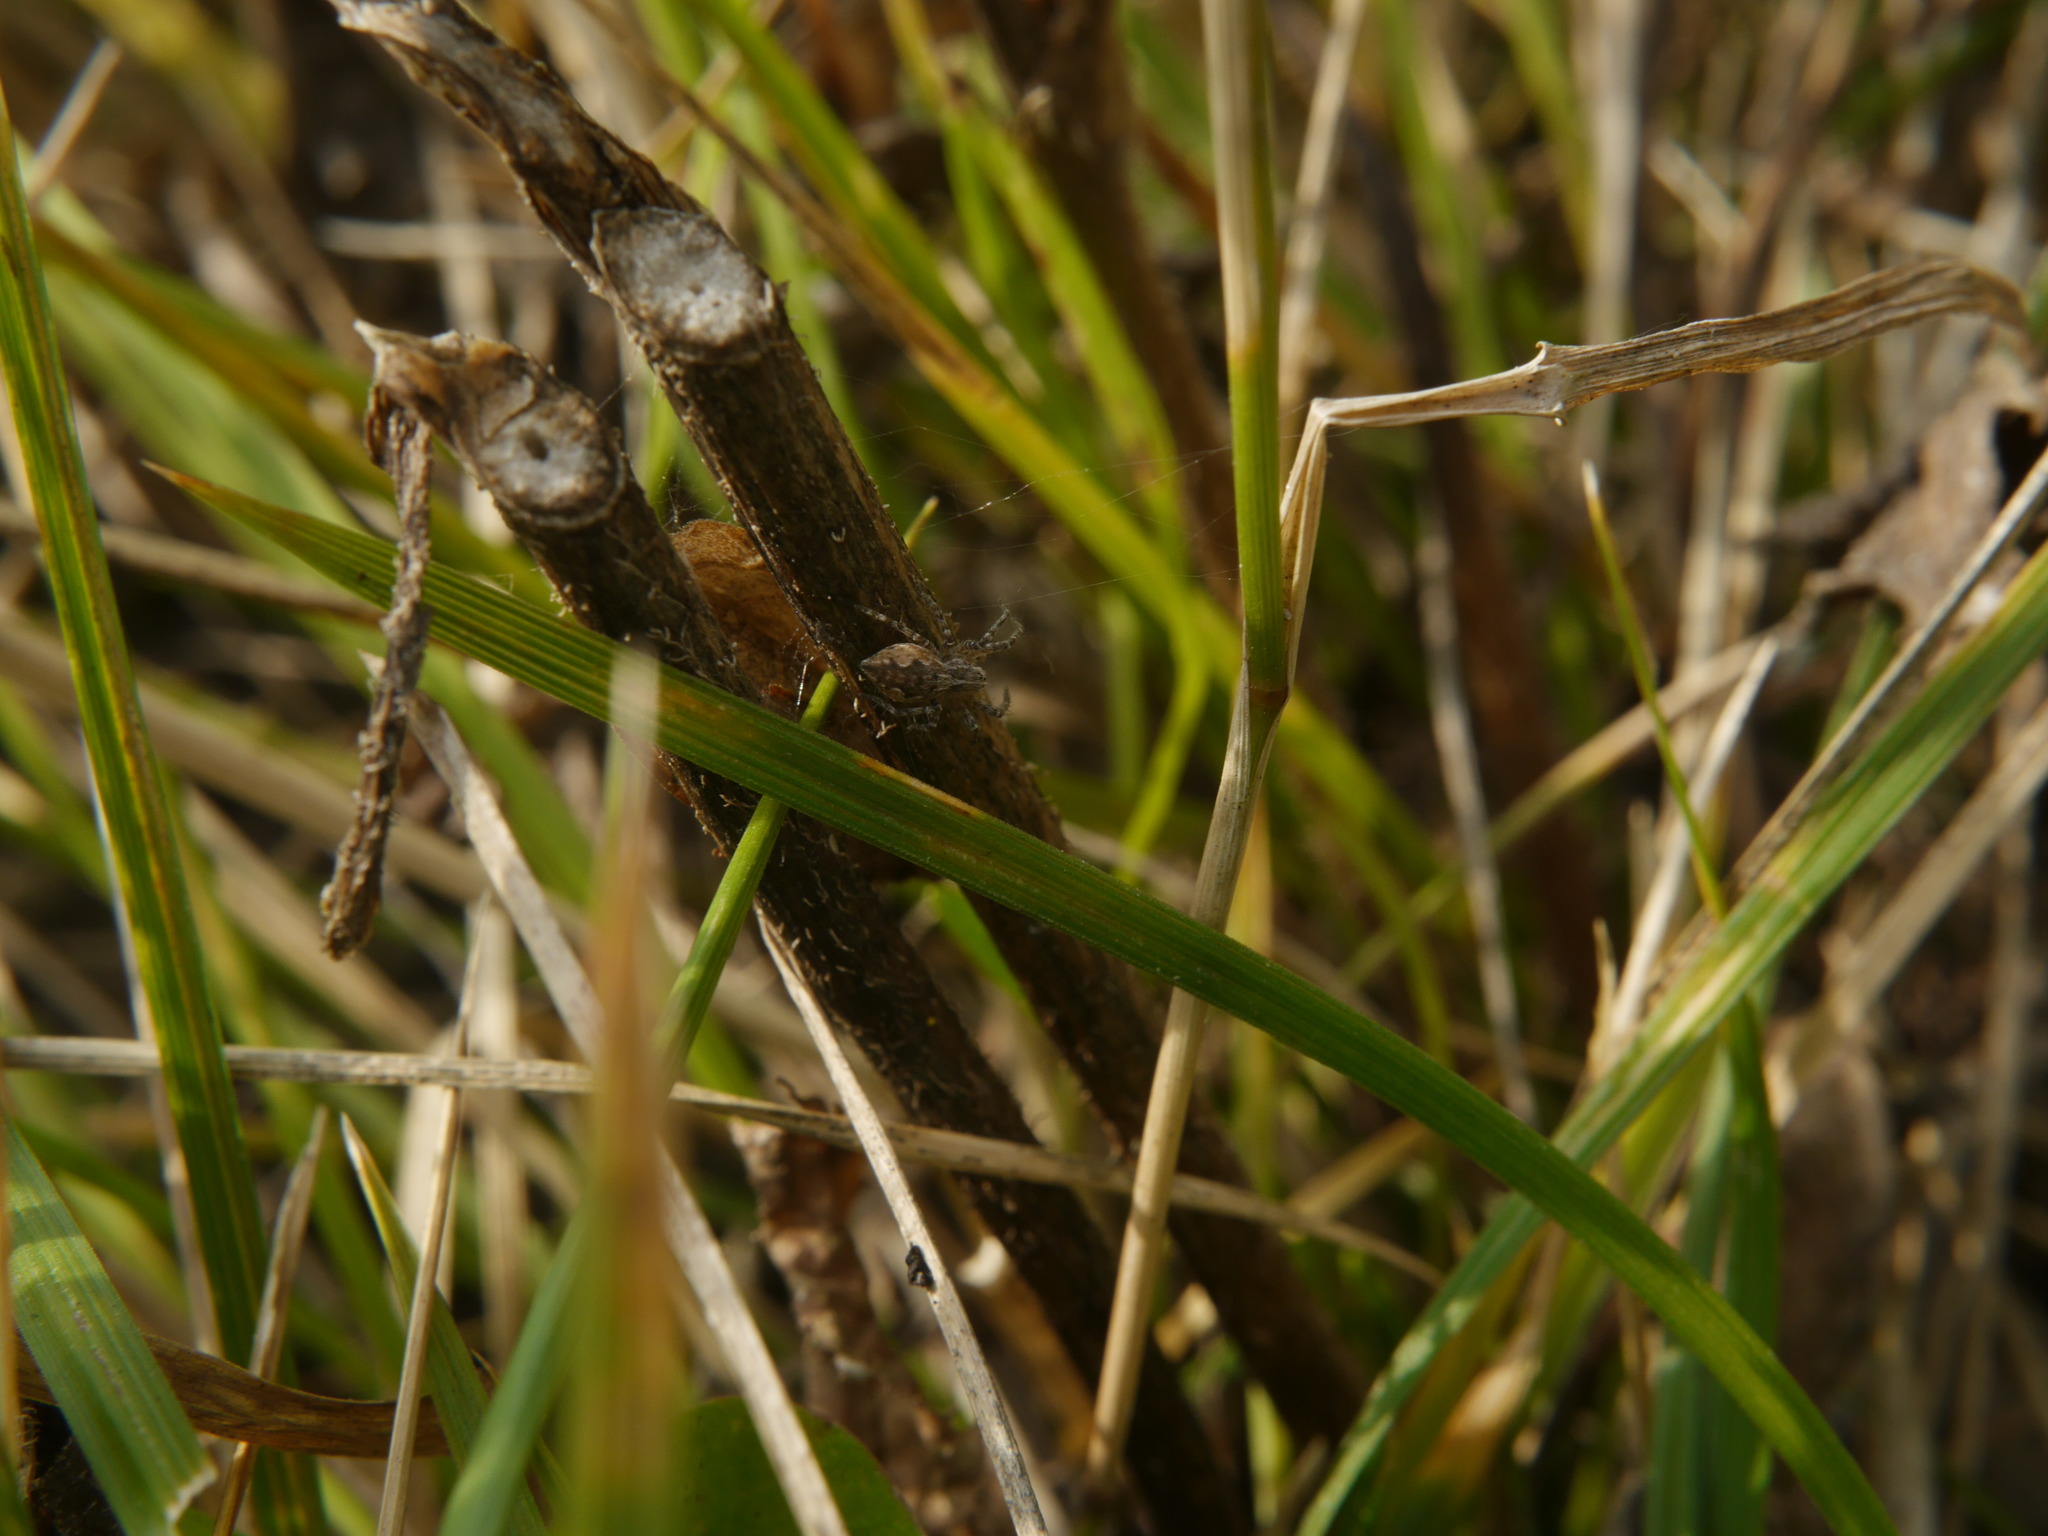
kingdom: Animalia
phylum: Arthropoda
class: Arachnida
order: Araneae
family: Pisauridae
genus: Pisaura
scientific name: Pisaura mirabilis
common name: Tent spider
